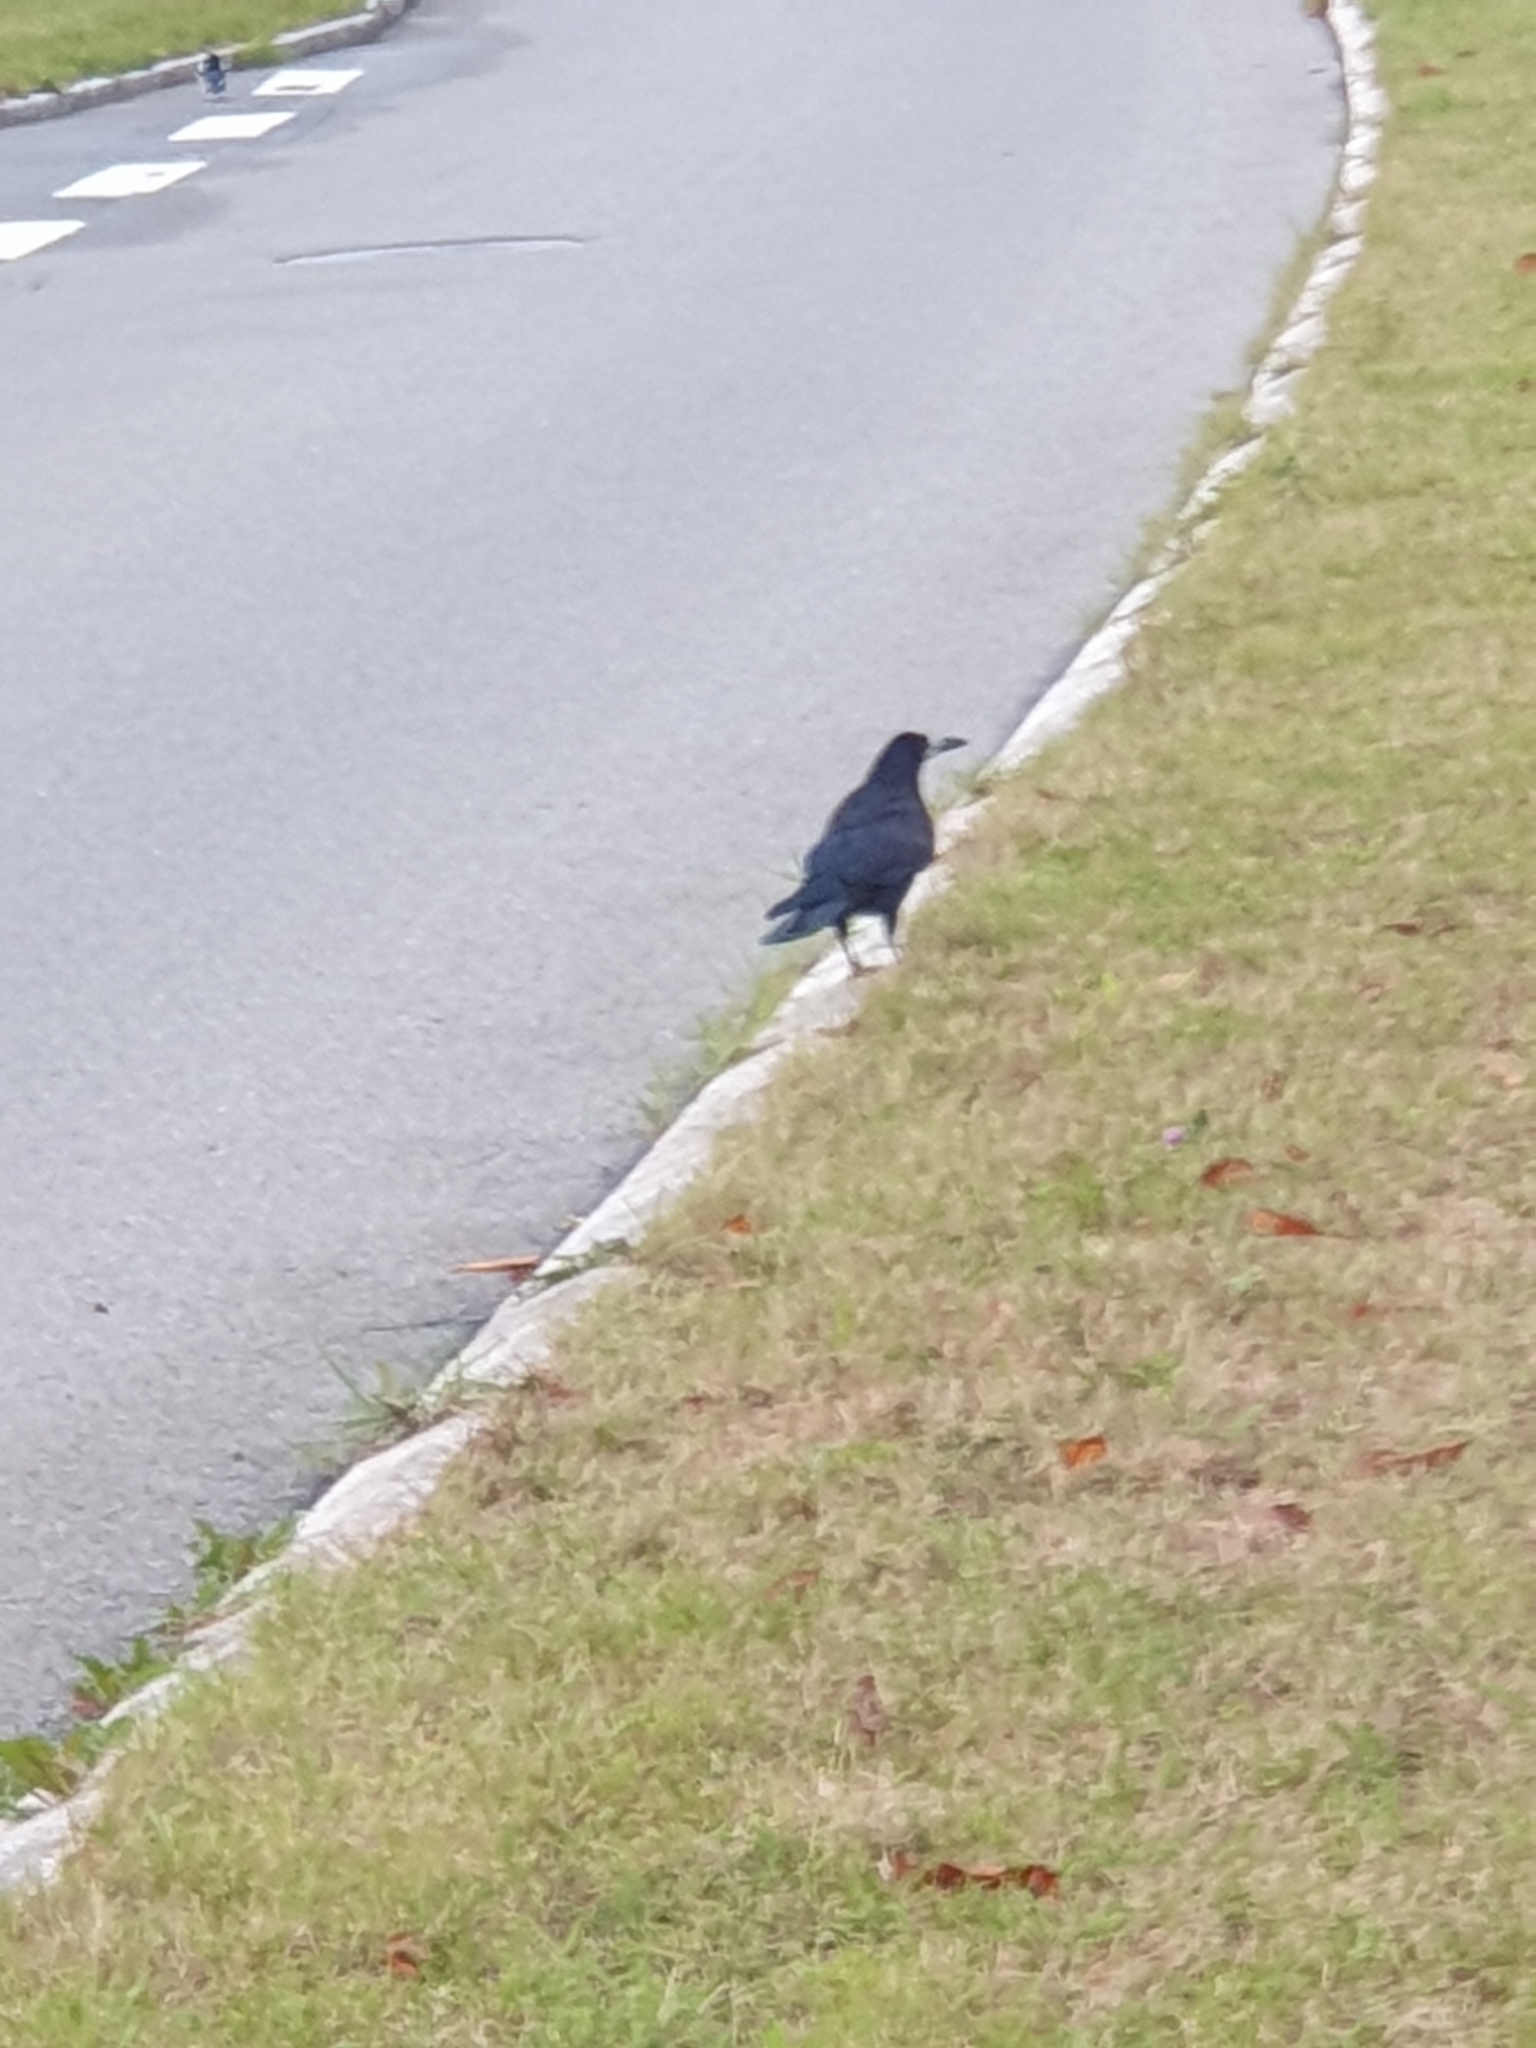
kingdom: Animalia
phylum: Chordata
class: Aves
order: Passeriformes
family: Corvidae
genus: Corvus
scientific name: Corvus frugilegus
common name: Rook
